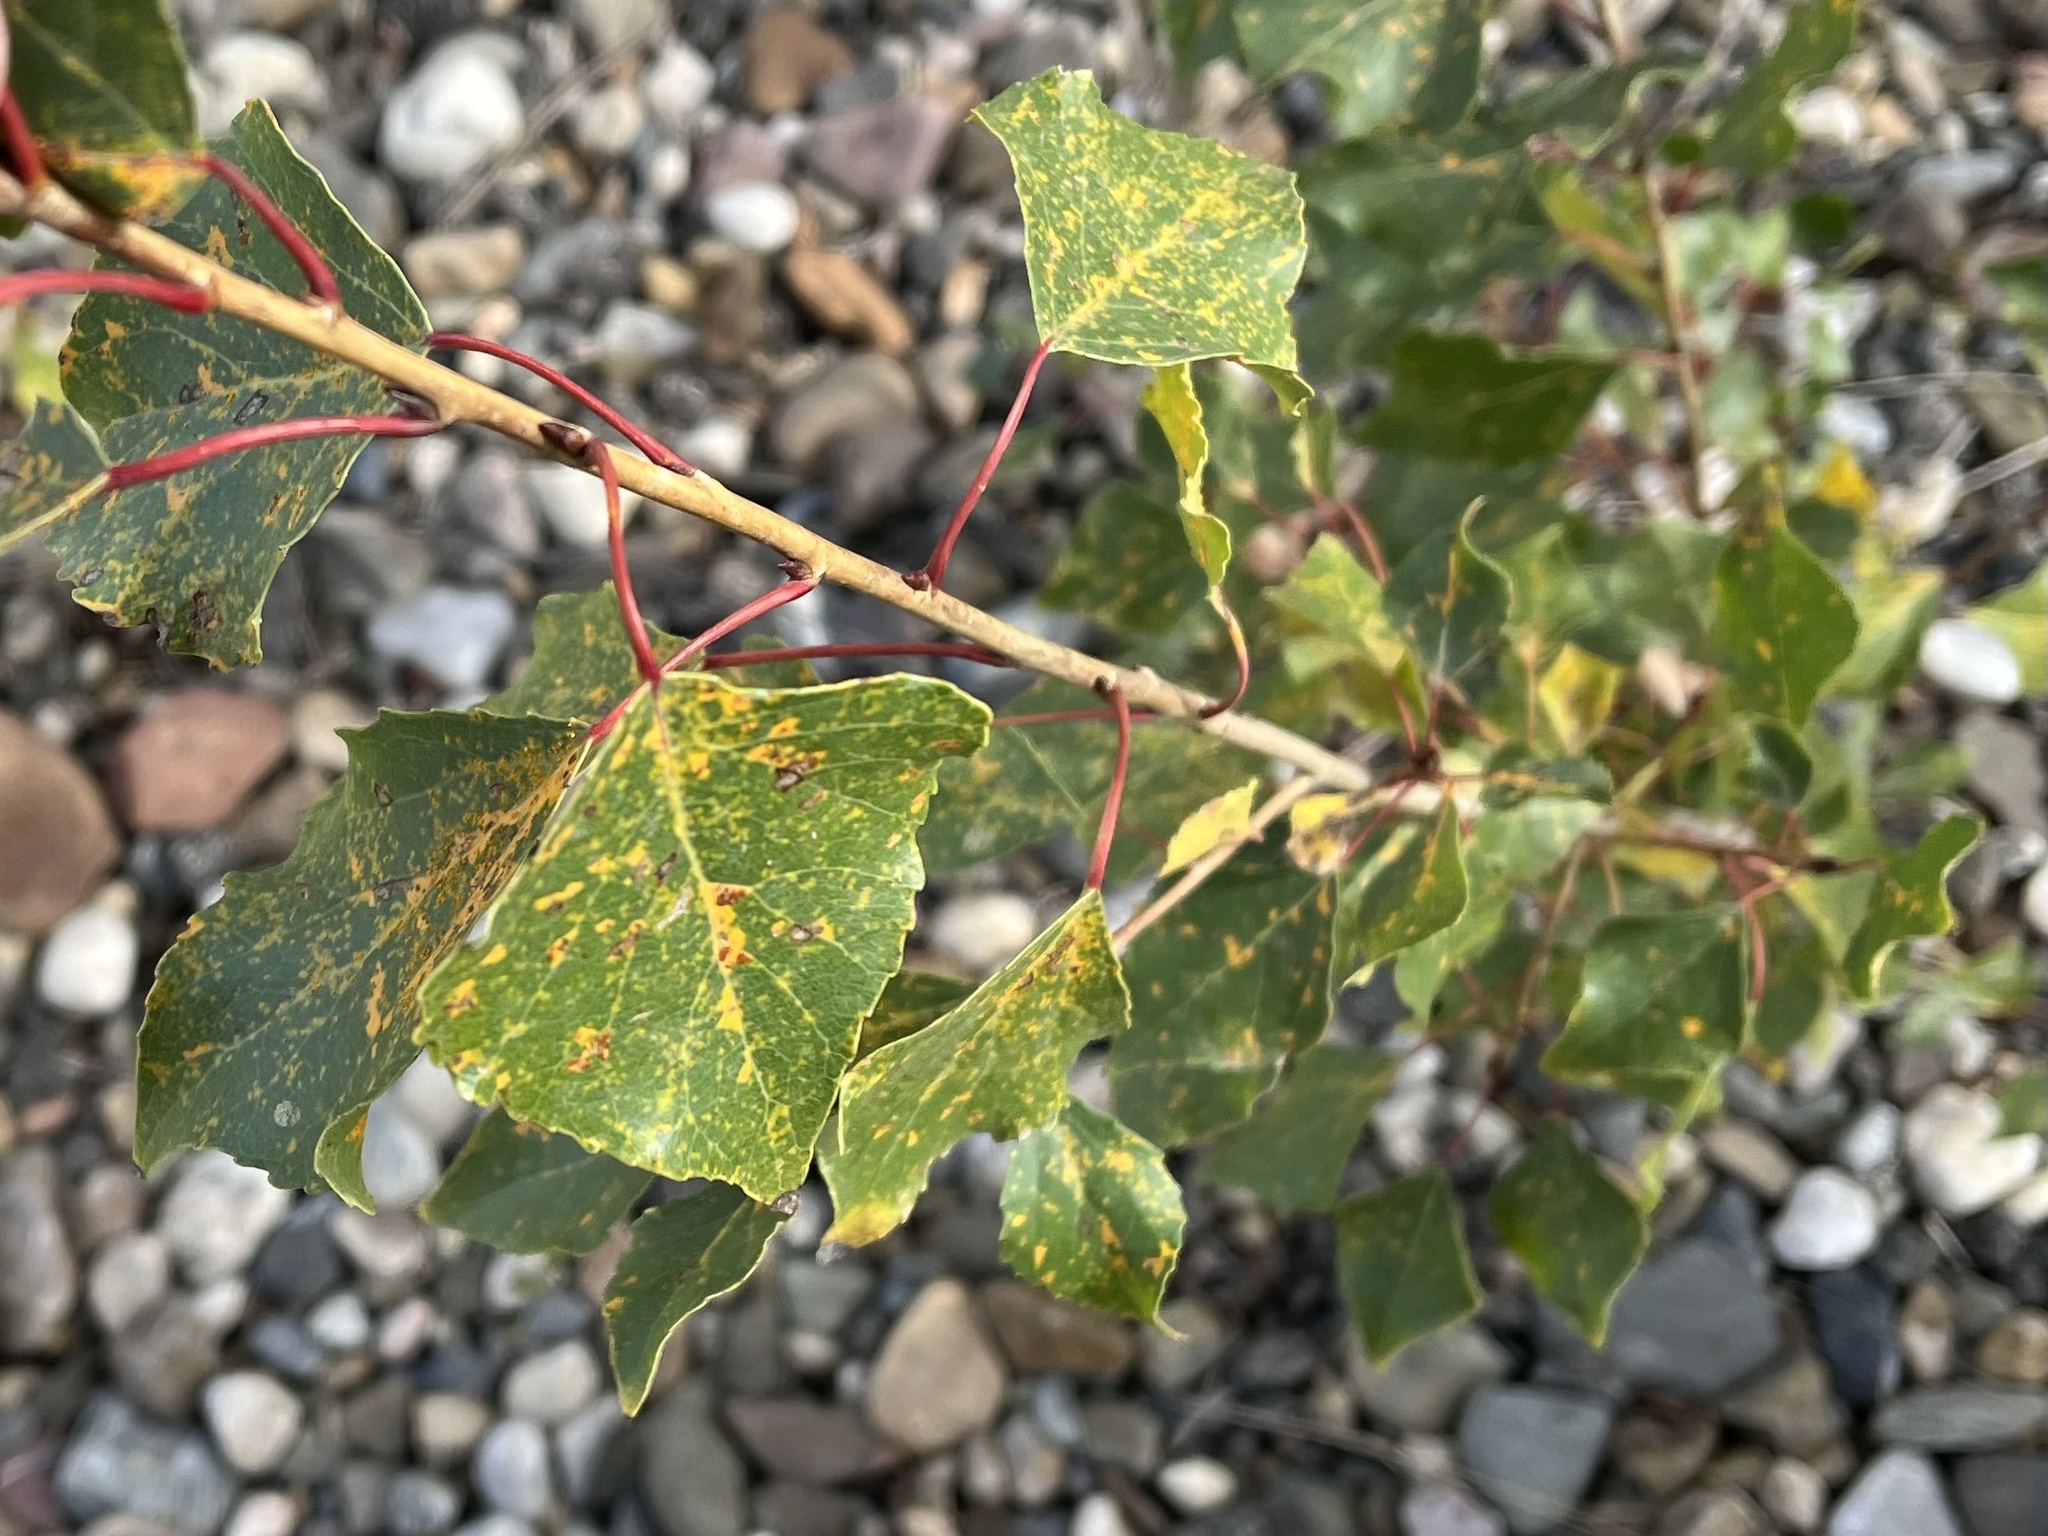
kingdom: Fungi
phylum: Basidiomycota
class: Pucciniomycetes
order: Pucciniales
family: Melampsoraceae
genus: Melampsora
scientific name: Melampsora
